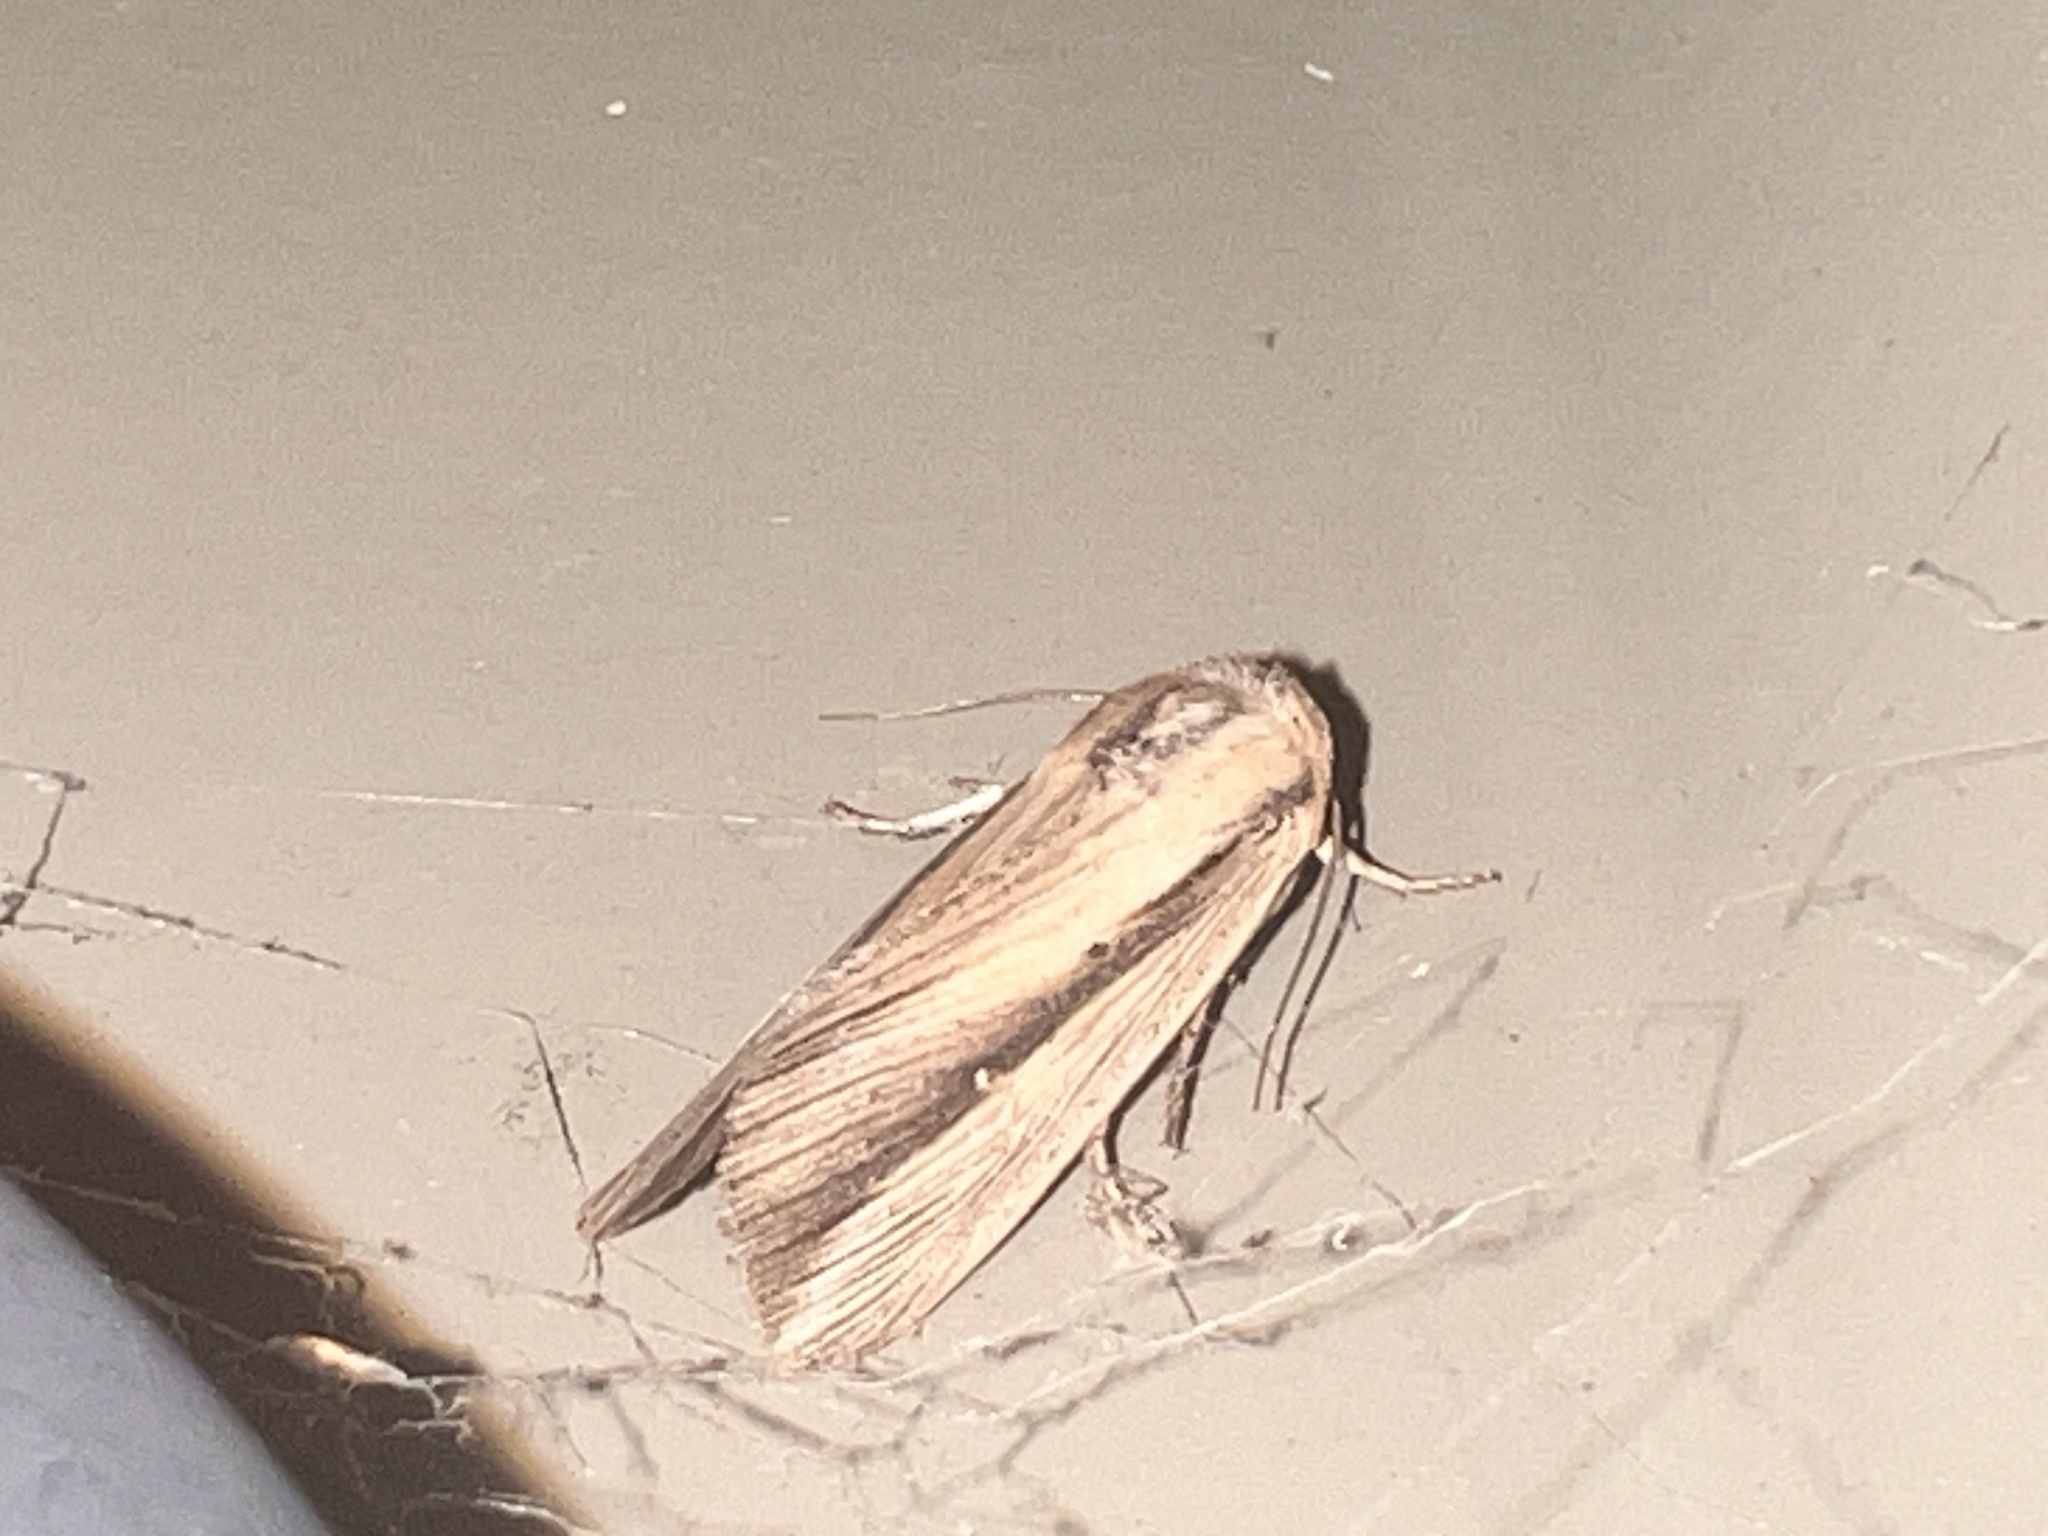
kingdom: Animalia
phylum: Arthropoda
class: Insecta
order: Lepidoptera
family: Noctuidae
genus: Leucania
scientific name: Leucania stenographa
